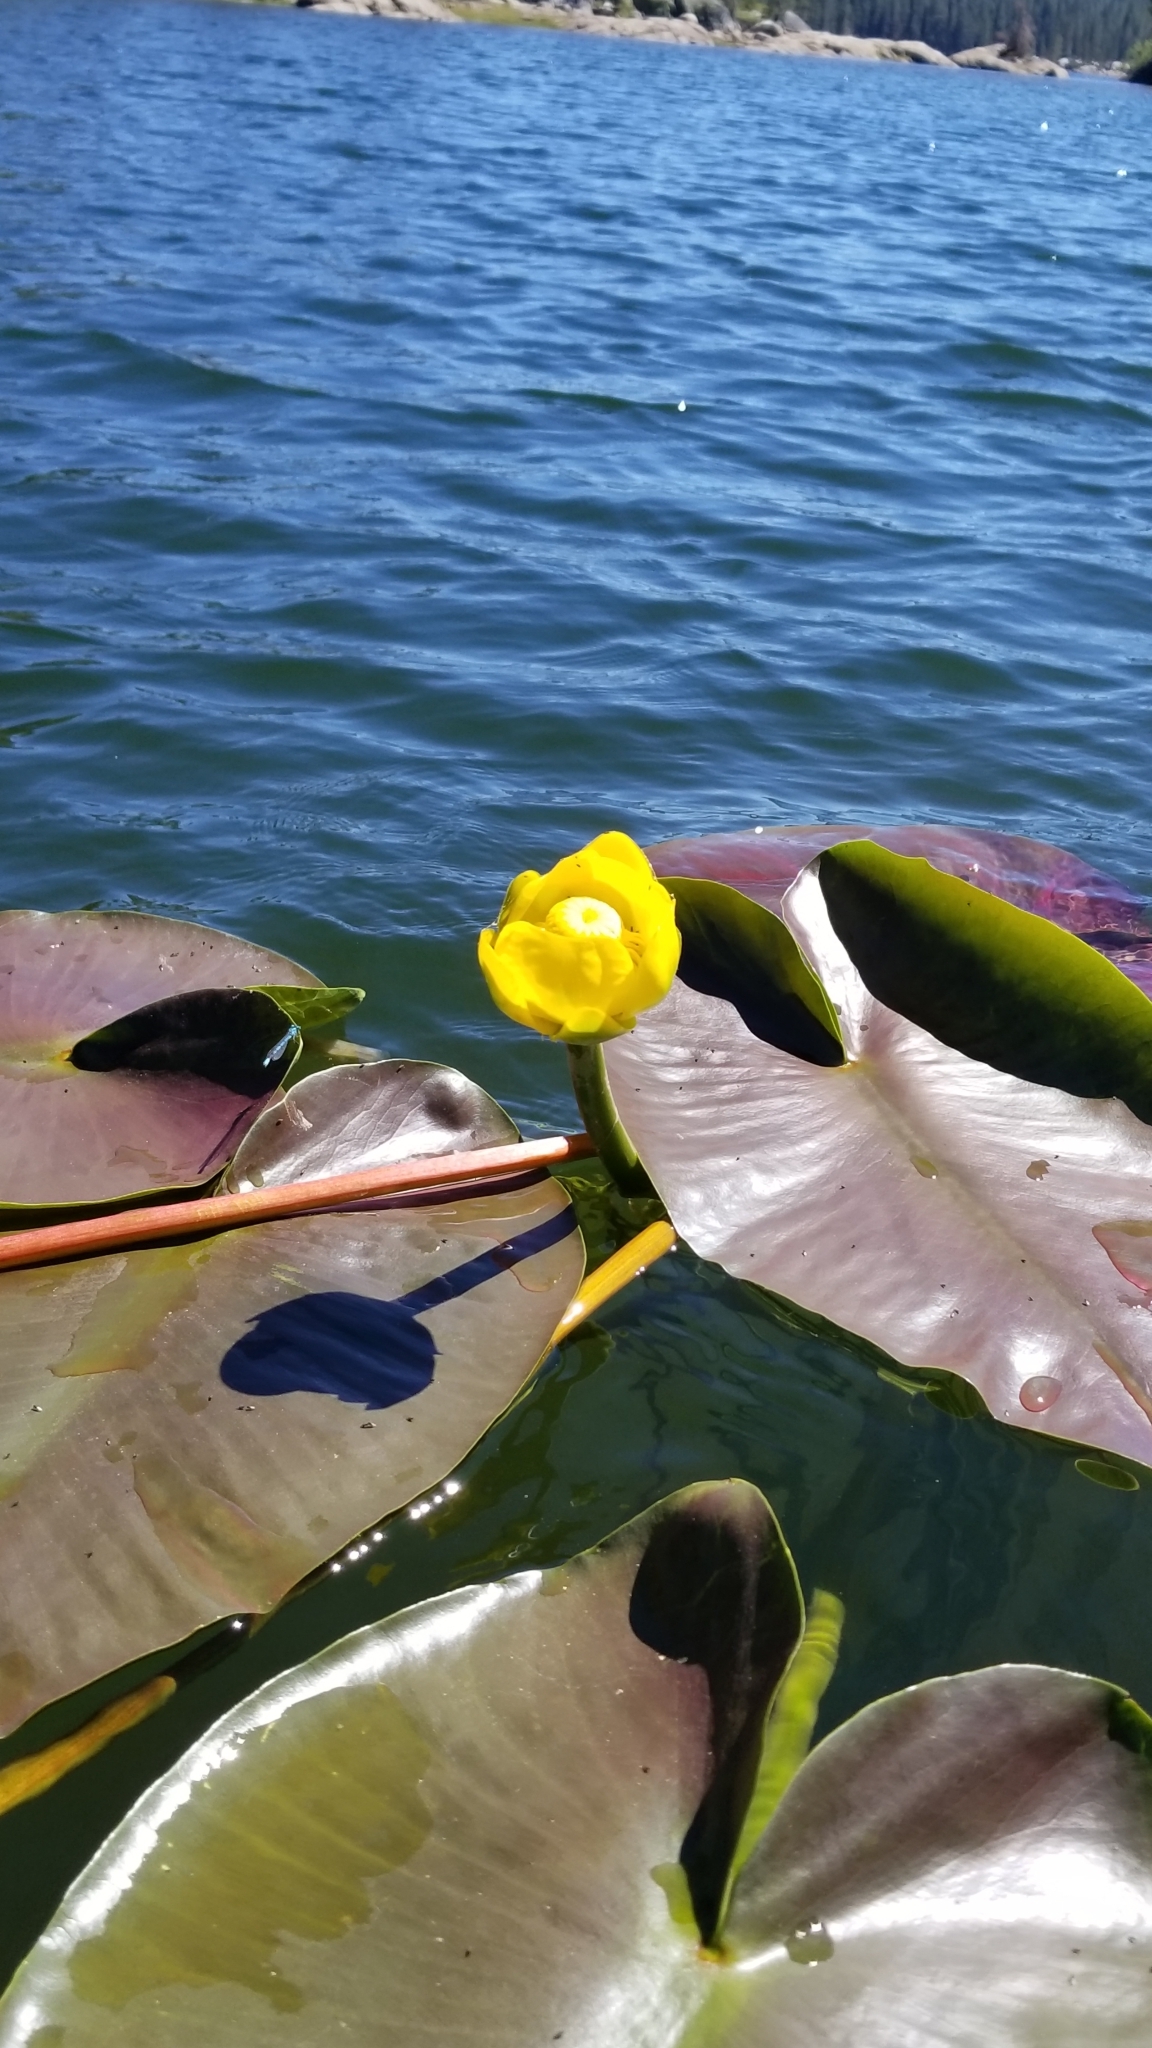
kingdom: Plantae
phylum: Tracheophyta
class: Magnoliopsida
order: Nymphaeales
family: Nymphaeaceae
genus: Nuphar
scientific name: Nuphar polysepala
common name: Rocky mountain cow-lily
